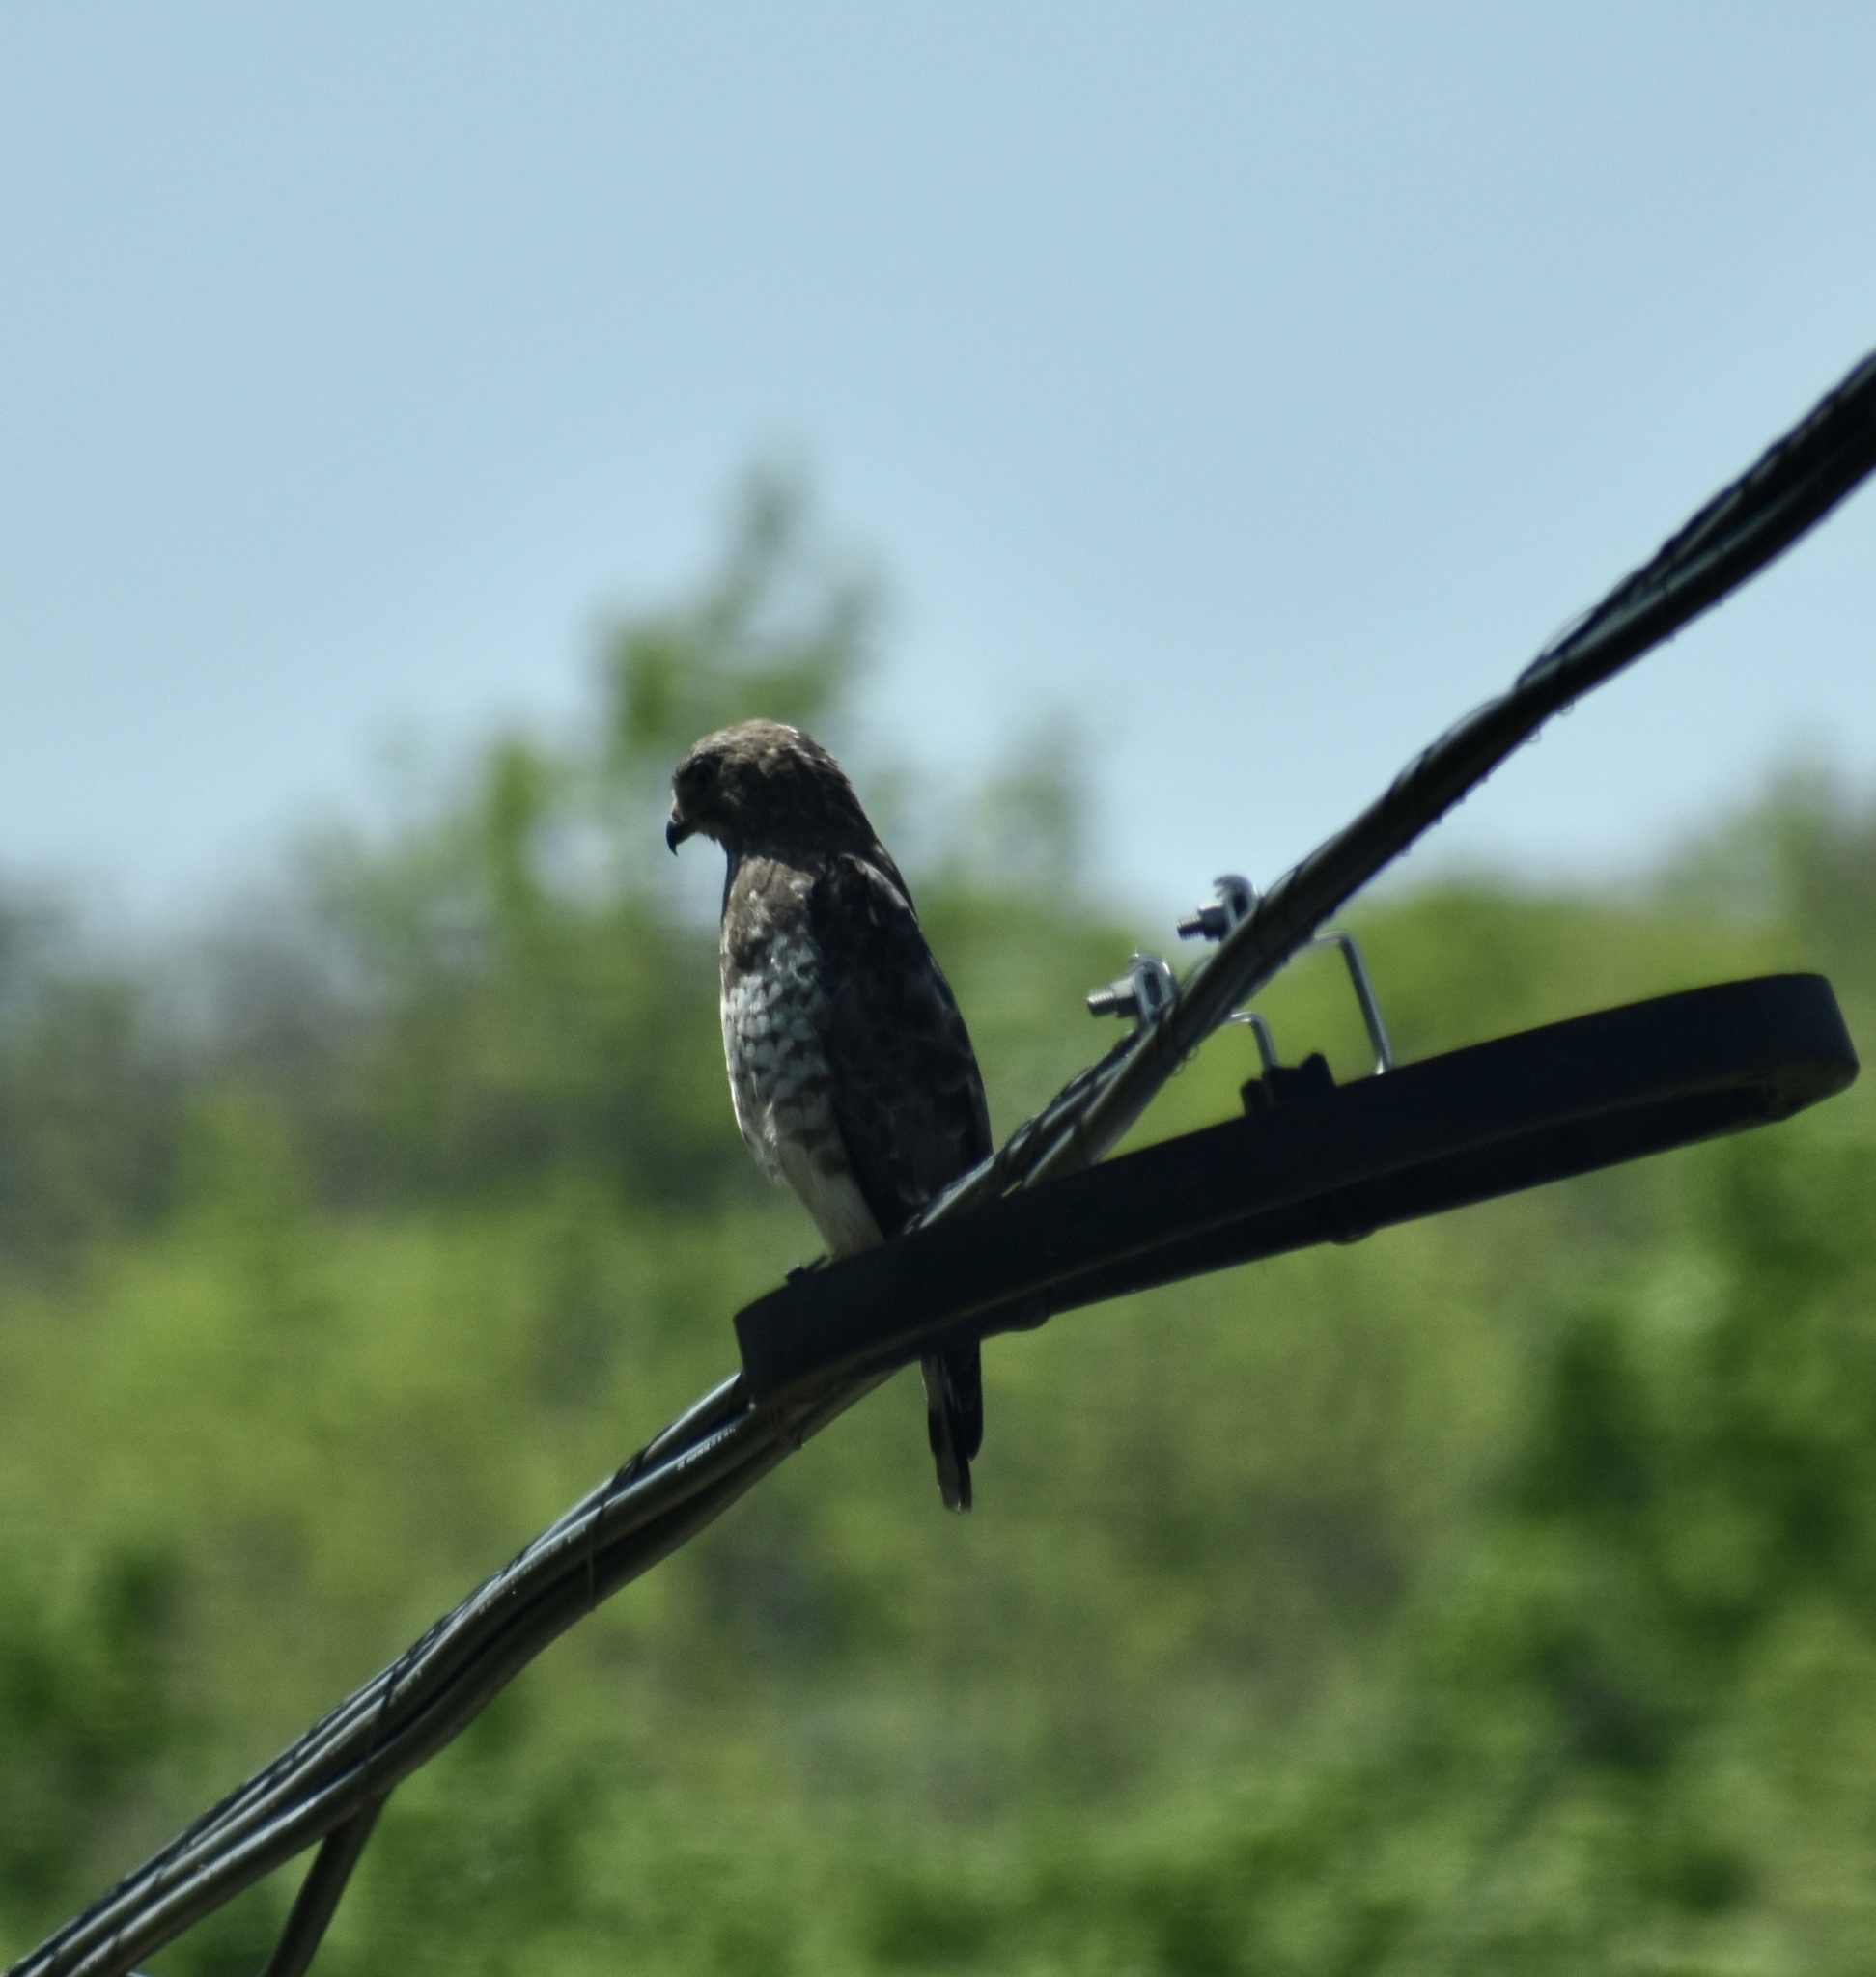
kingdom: Animalia
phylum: Chordata
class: Aves
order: Accipitriformes
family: Accipitridae
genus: Buteo
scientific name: Buteo platypterus
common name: Broad-winged hawk
